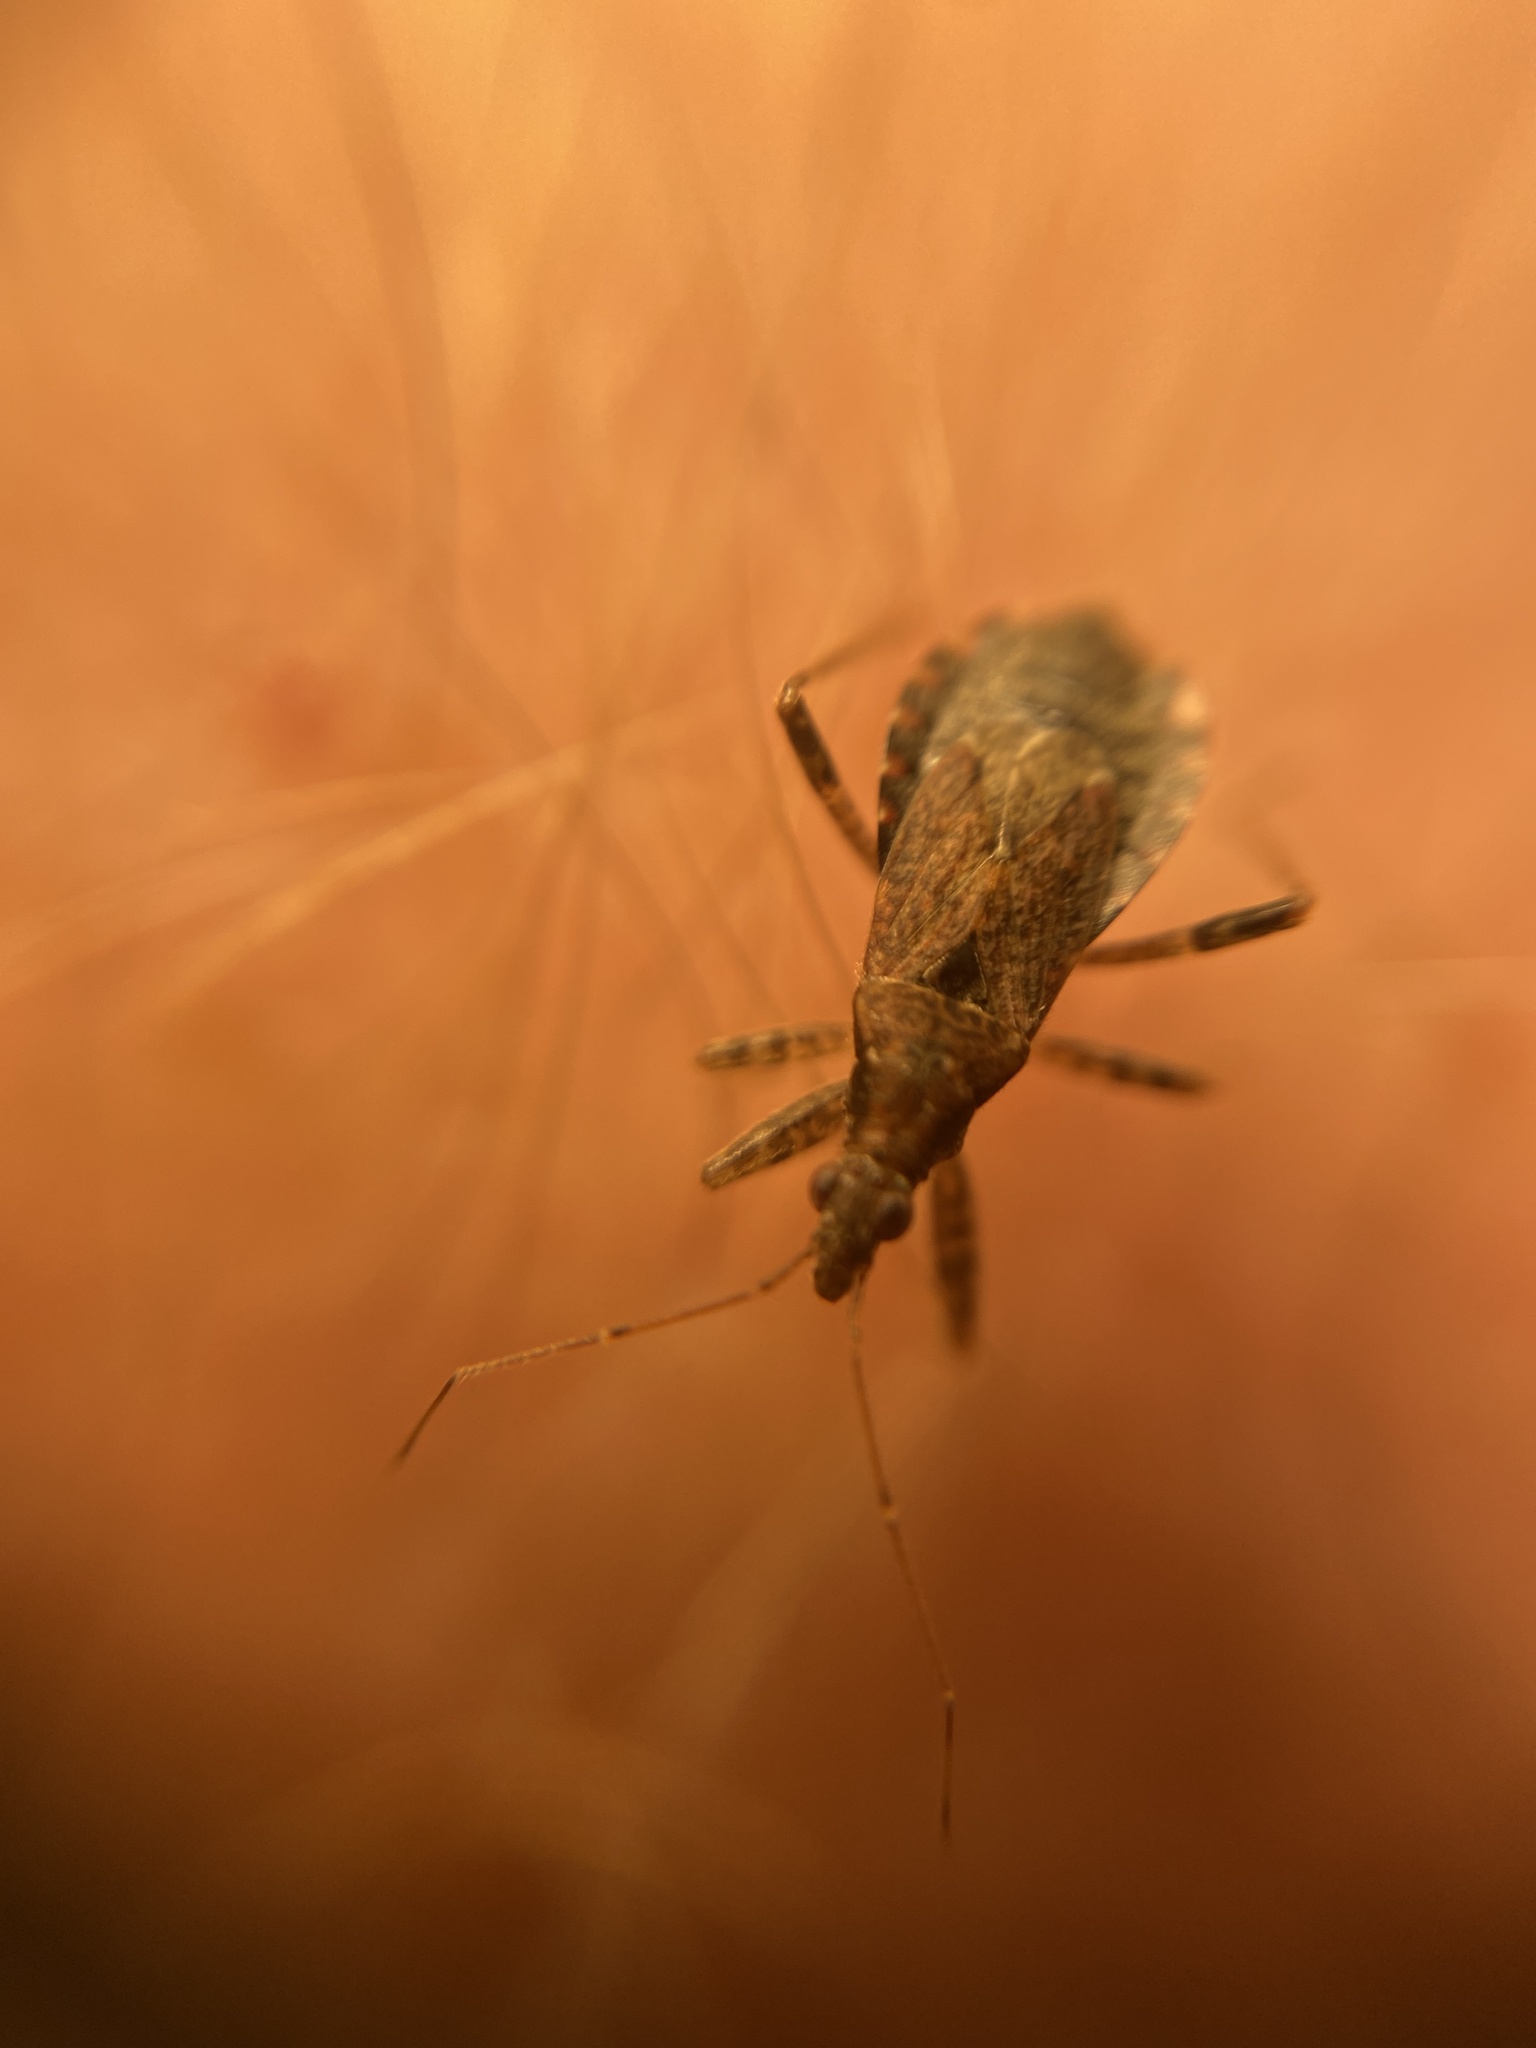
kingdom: Animalia
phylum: Arthropoda
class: Insecta
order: Hemiptera
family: Nabidae
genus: Himacerus
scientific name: Himacerus mirmicoides
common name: Ant damsel bug
